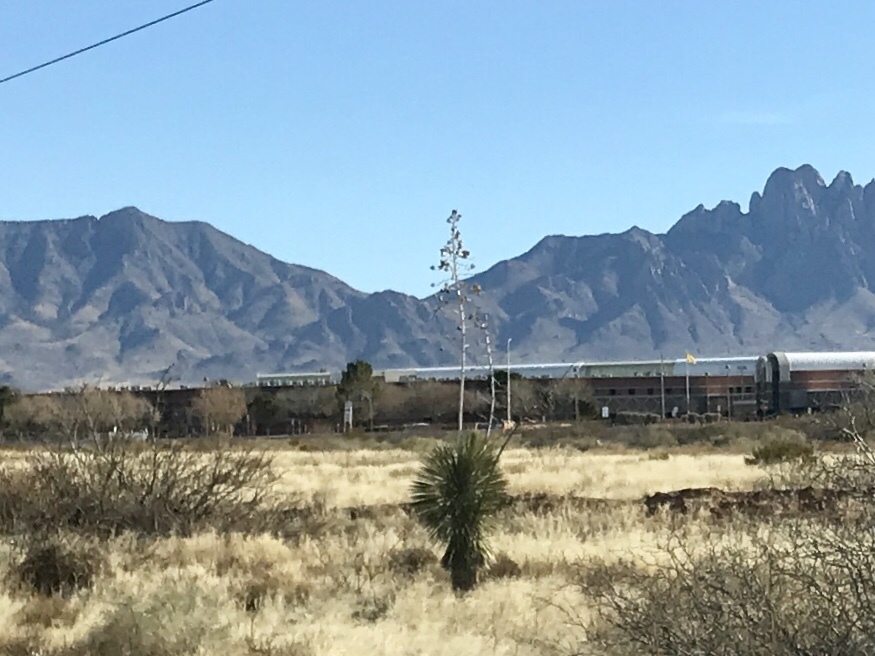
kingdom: Plantae
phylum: Tracheophyta
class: Liliopsida
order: Asparagales
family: Asparagaceae
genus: Yucca
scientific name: Yucca elata
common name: Palmella
